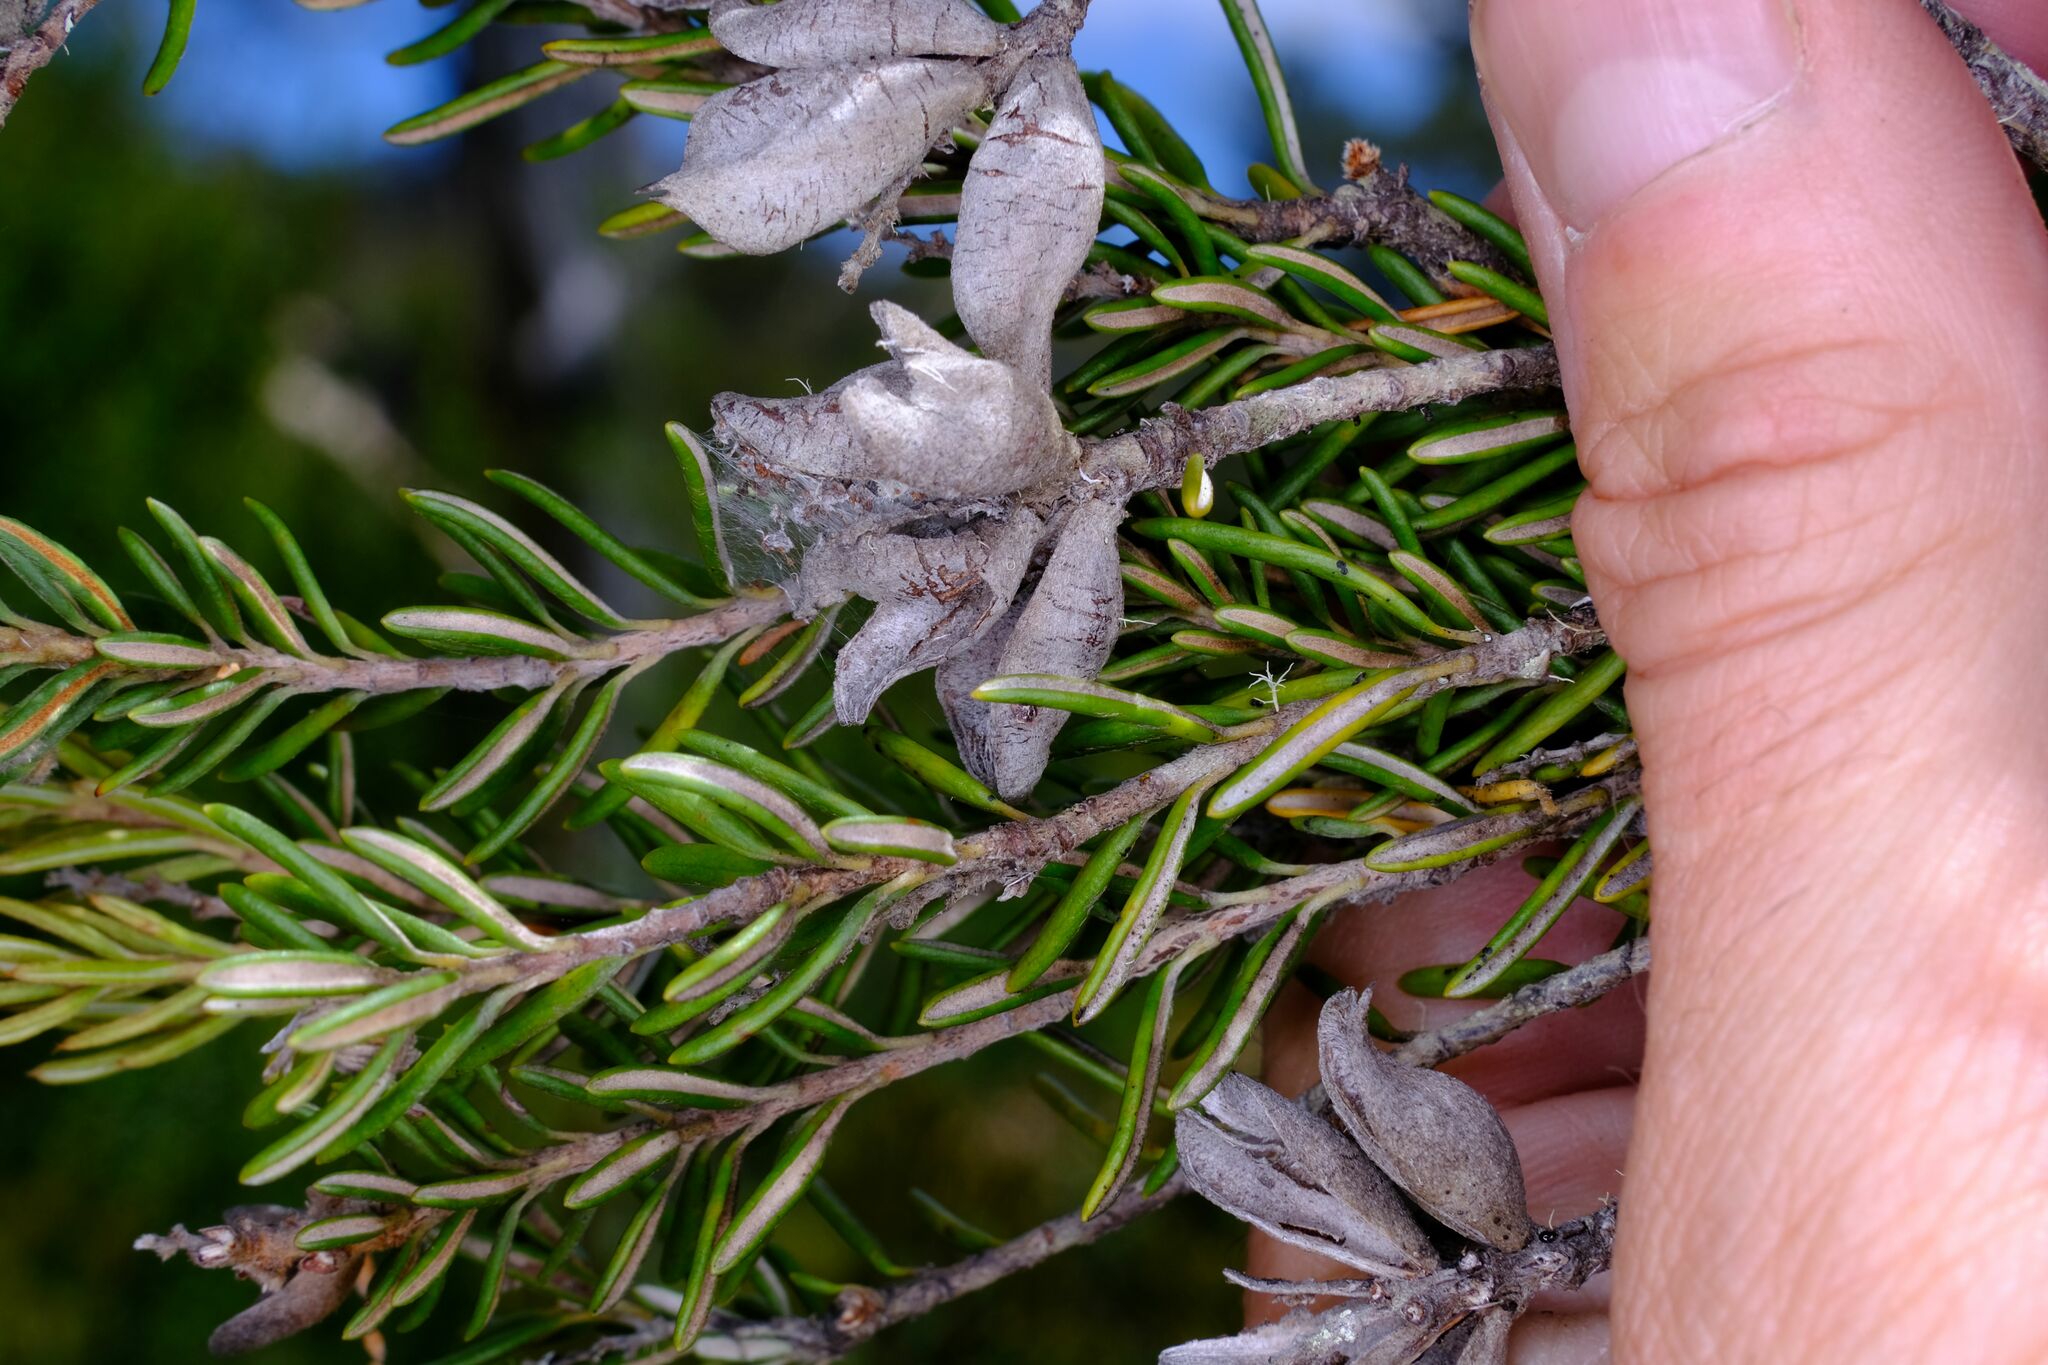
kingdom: Plantae
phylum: Tracheophyta
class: Magnoliopsida
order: Proteales
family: Proteaceae
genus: Orites
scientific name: Orites revolutus
